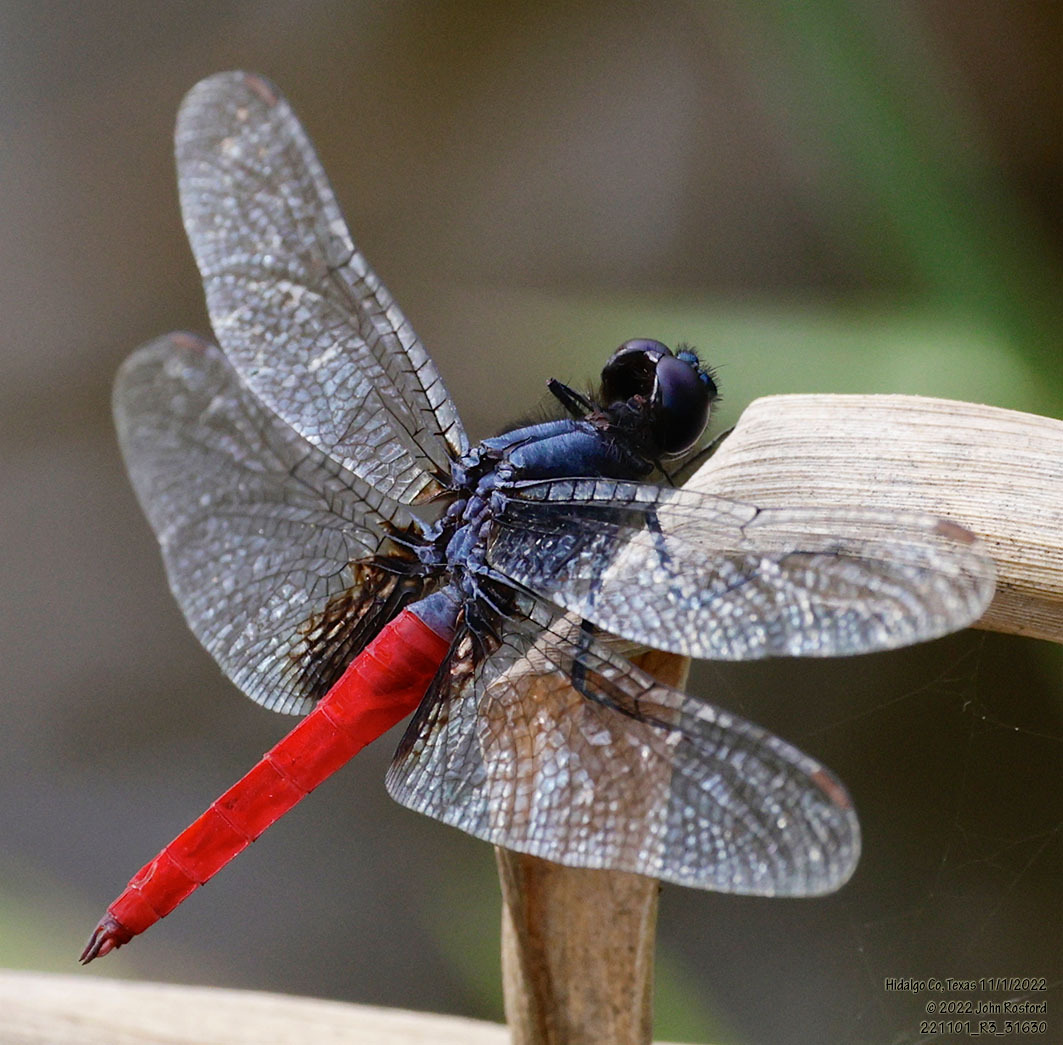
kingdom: Animalia
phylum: Arthropoda
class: Insecta
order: Odonata
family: Libellulidae
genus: Planiplax
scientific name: Planiplax sanguiniventris
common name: Mexican scarlet-tail
